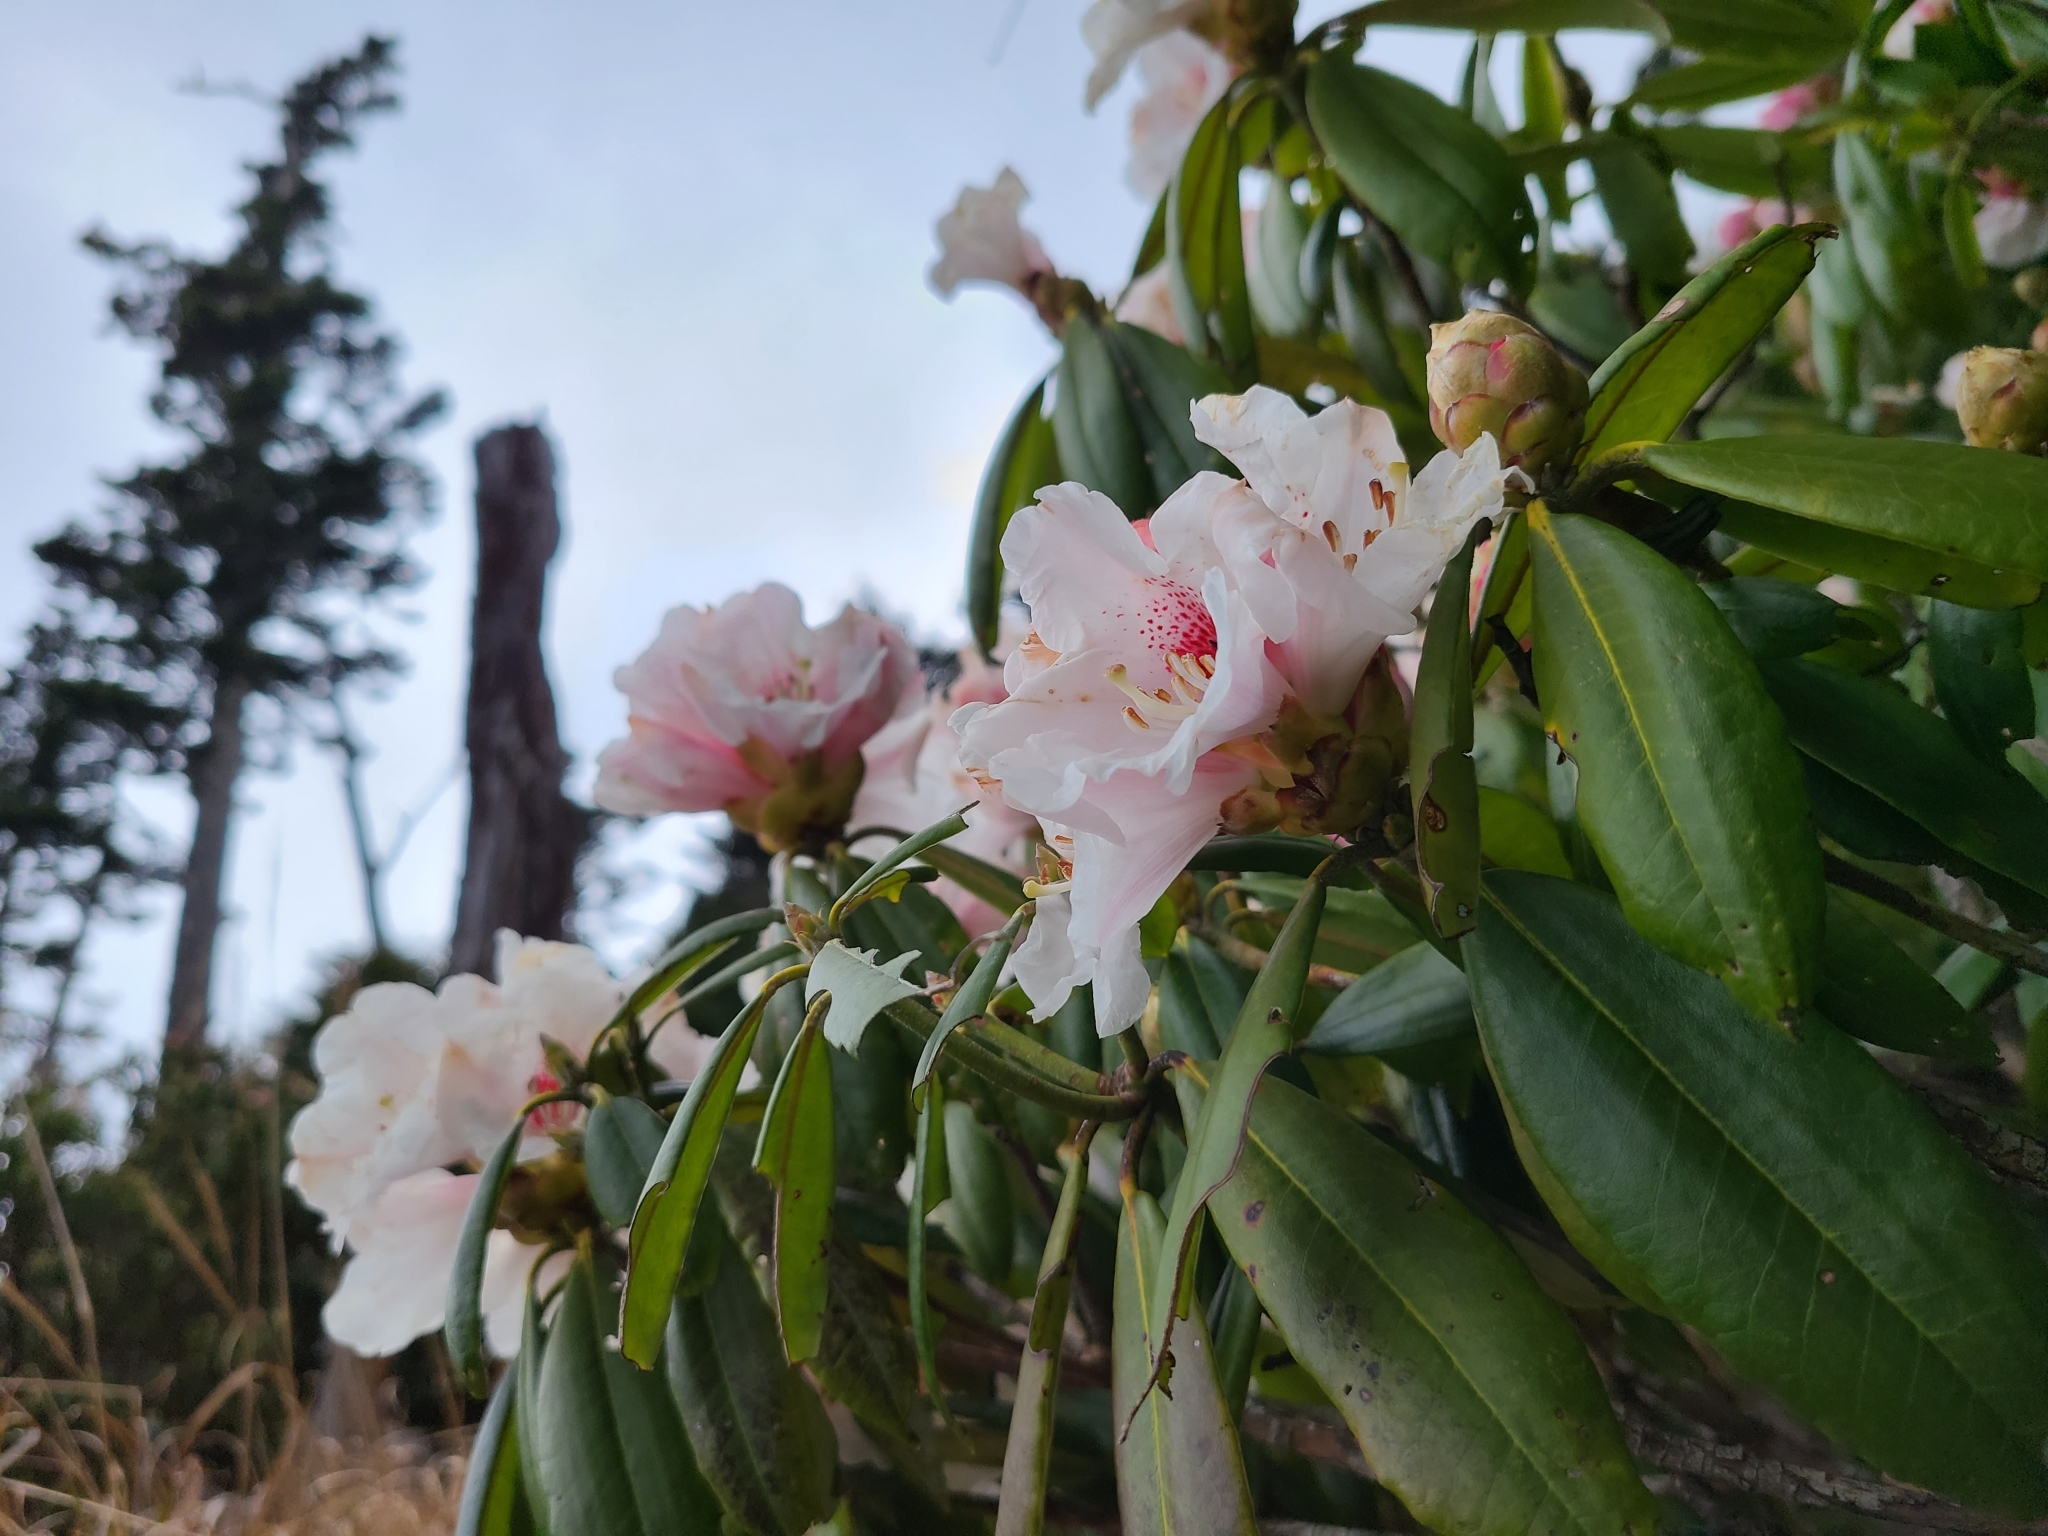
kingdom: Plantae
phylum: Tracheophyta
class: Magnoliopsida
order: Ericales
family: Ericaceae
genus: Rhododendron
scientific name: Rhododendron pseudochrysanthum
